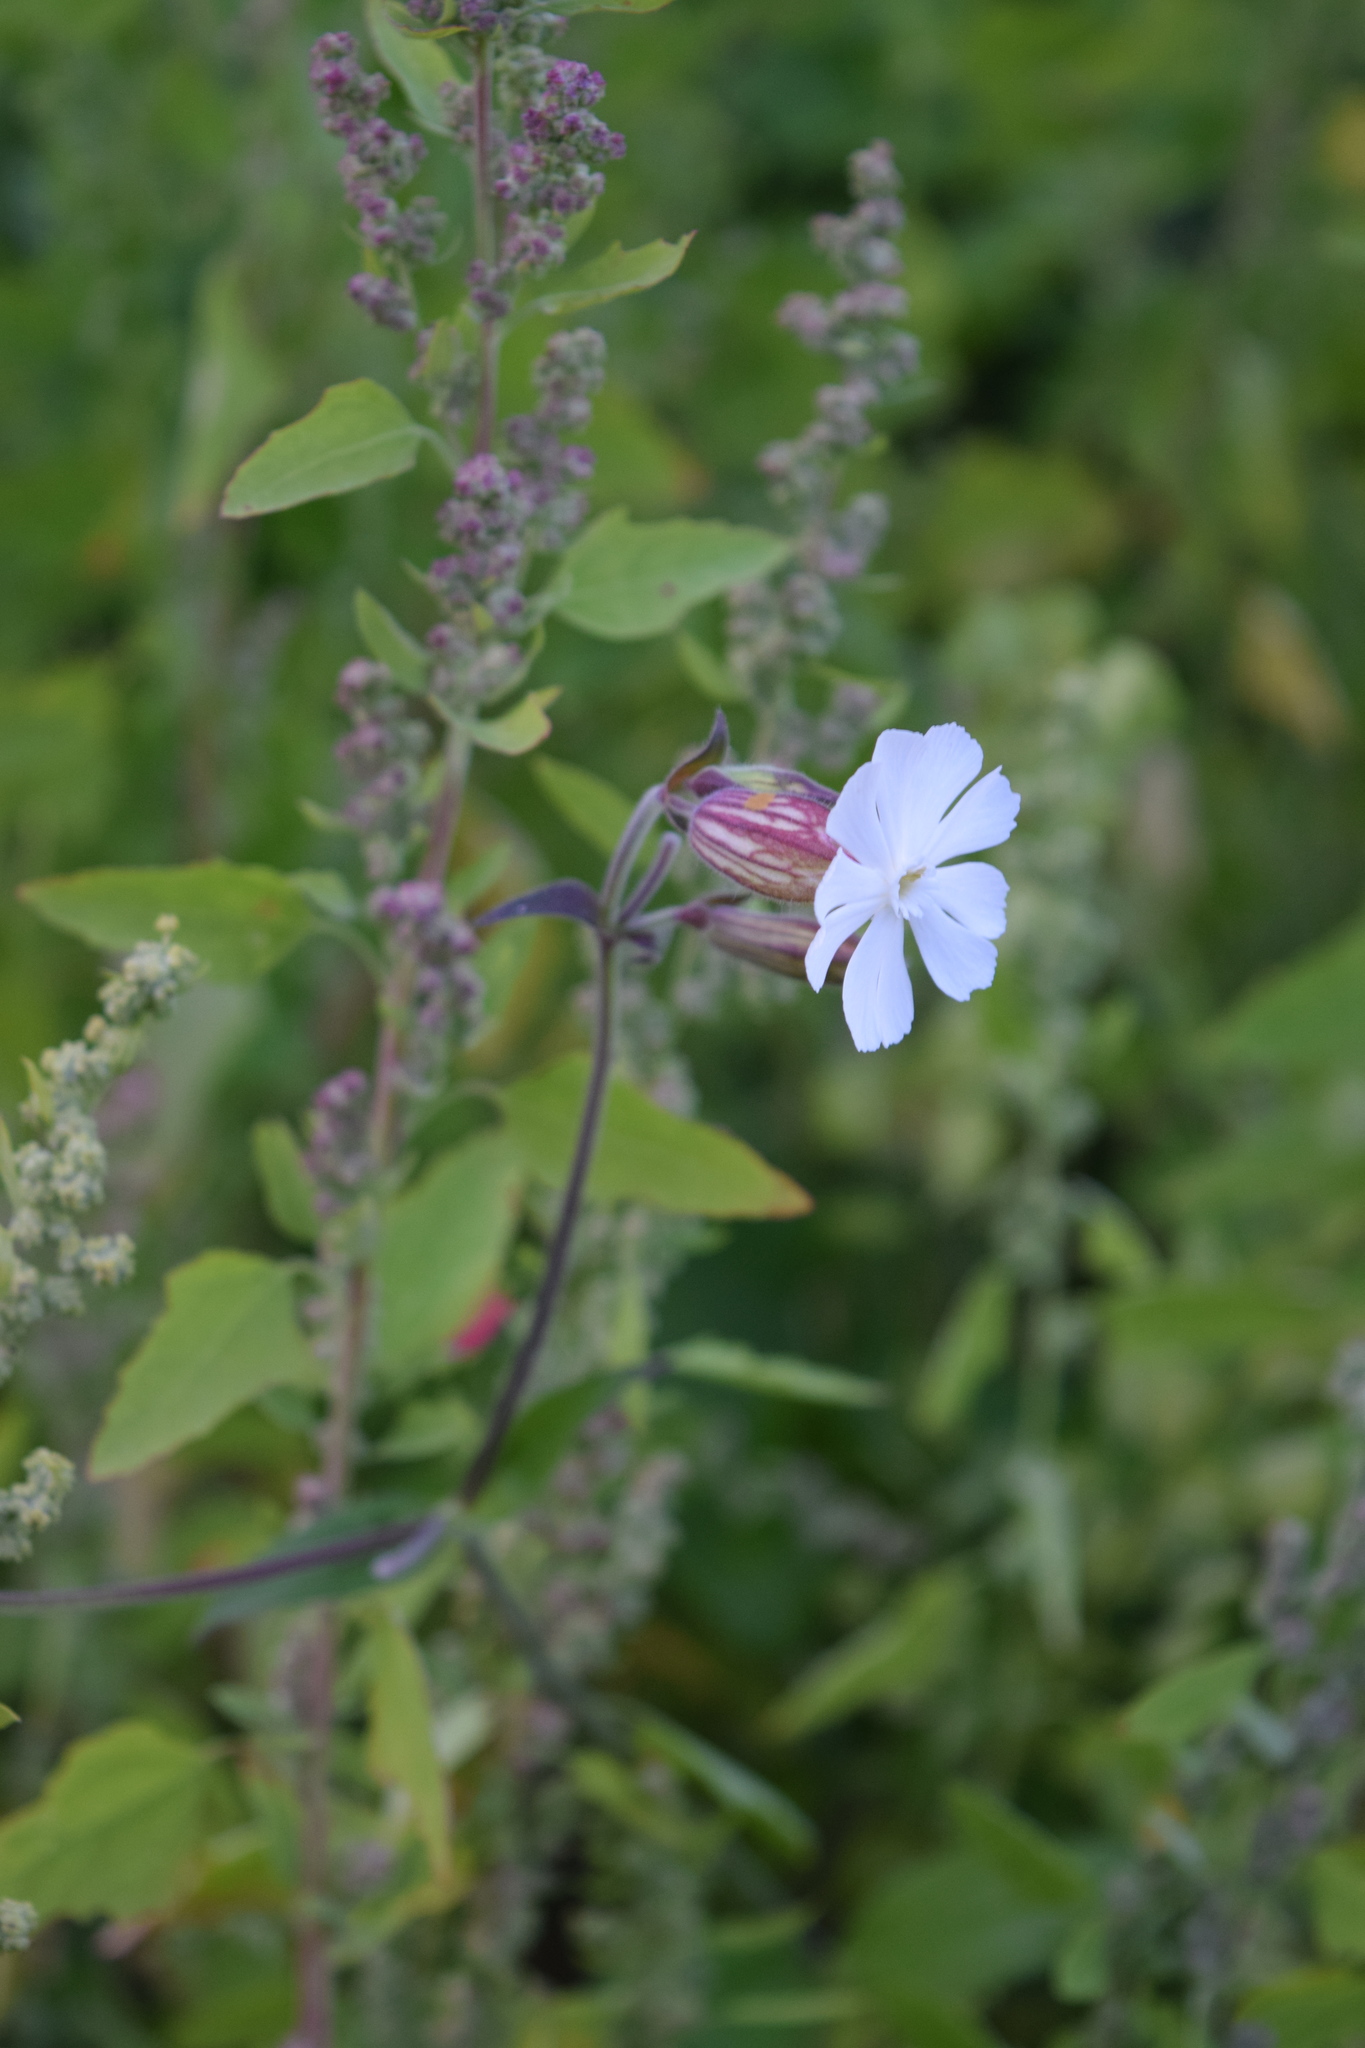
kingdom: Plantae
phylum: Tracheophyta
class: Magnoliopsida
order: Caryophyllales
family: Caryophyllaceae
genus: Silene
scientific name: Silene latifolia
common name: White campion
